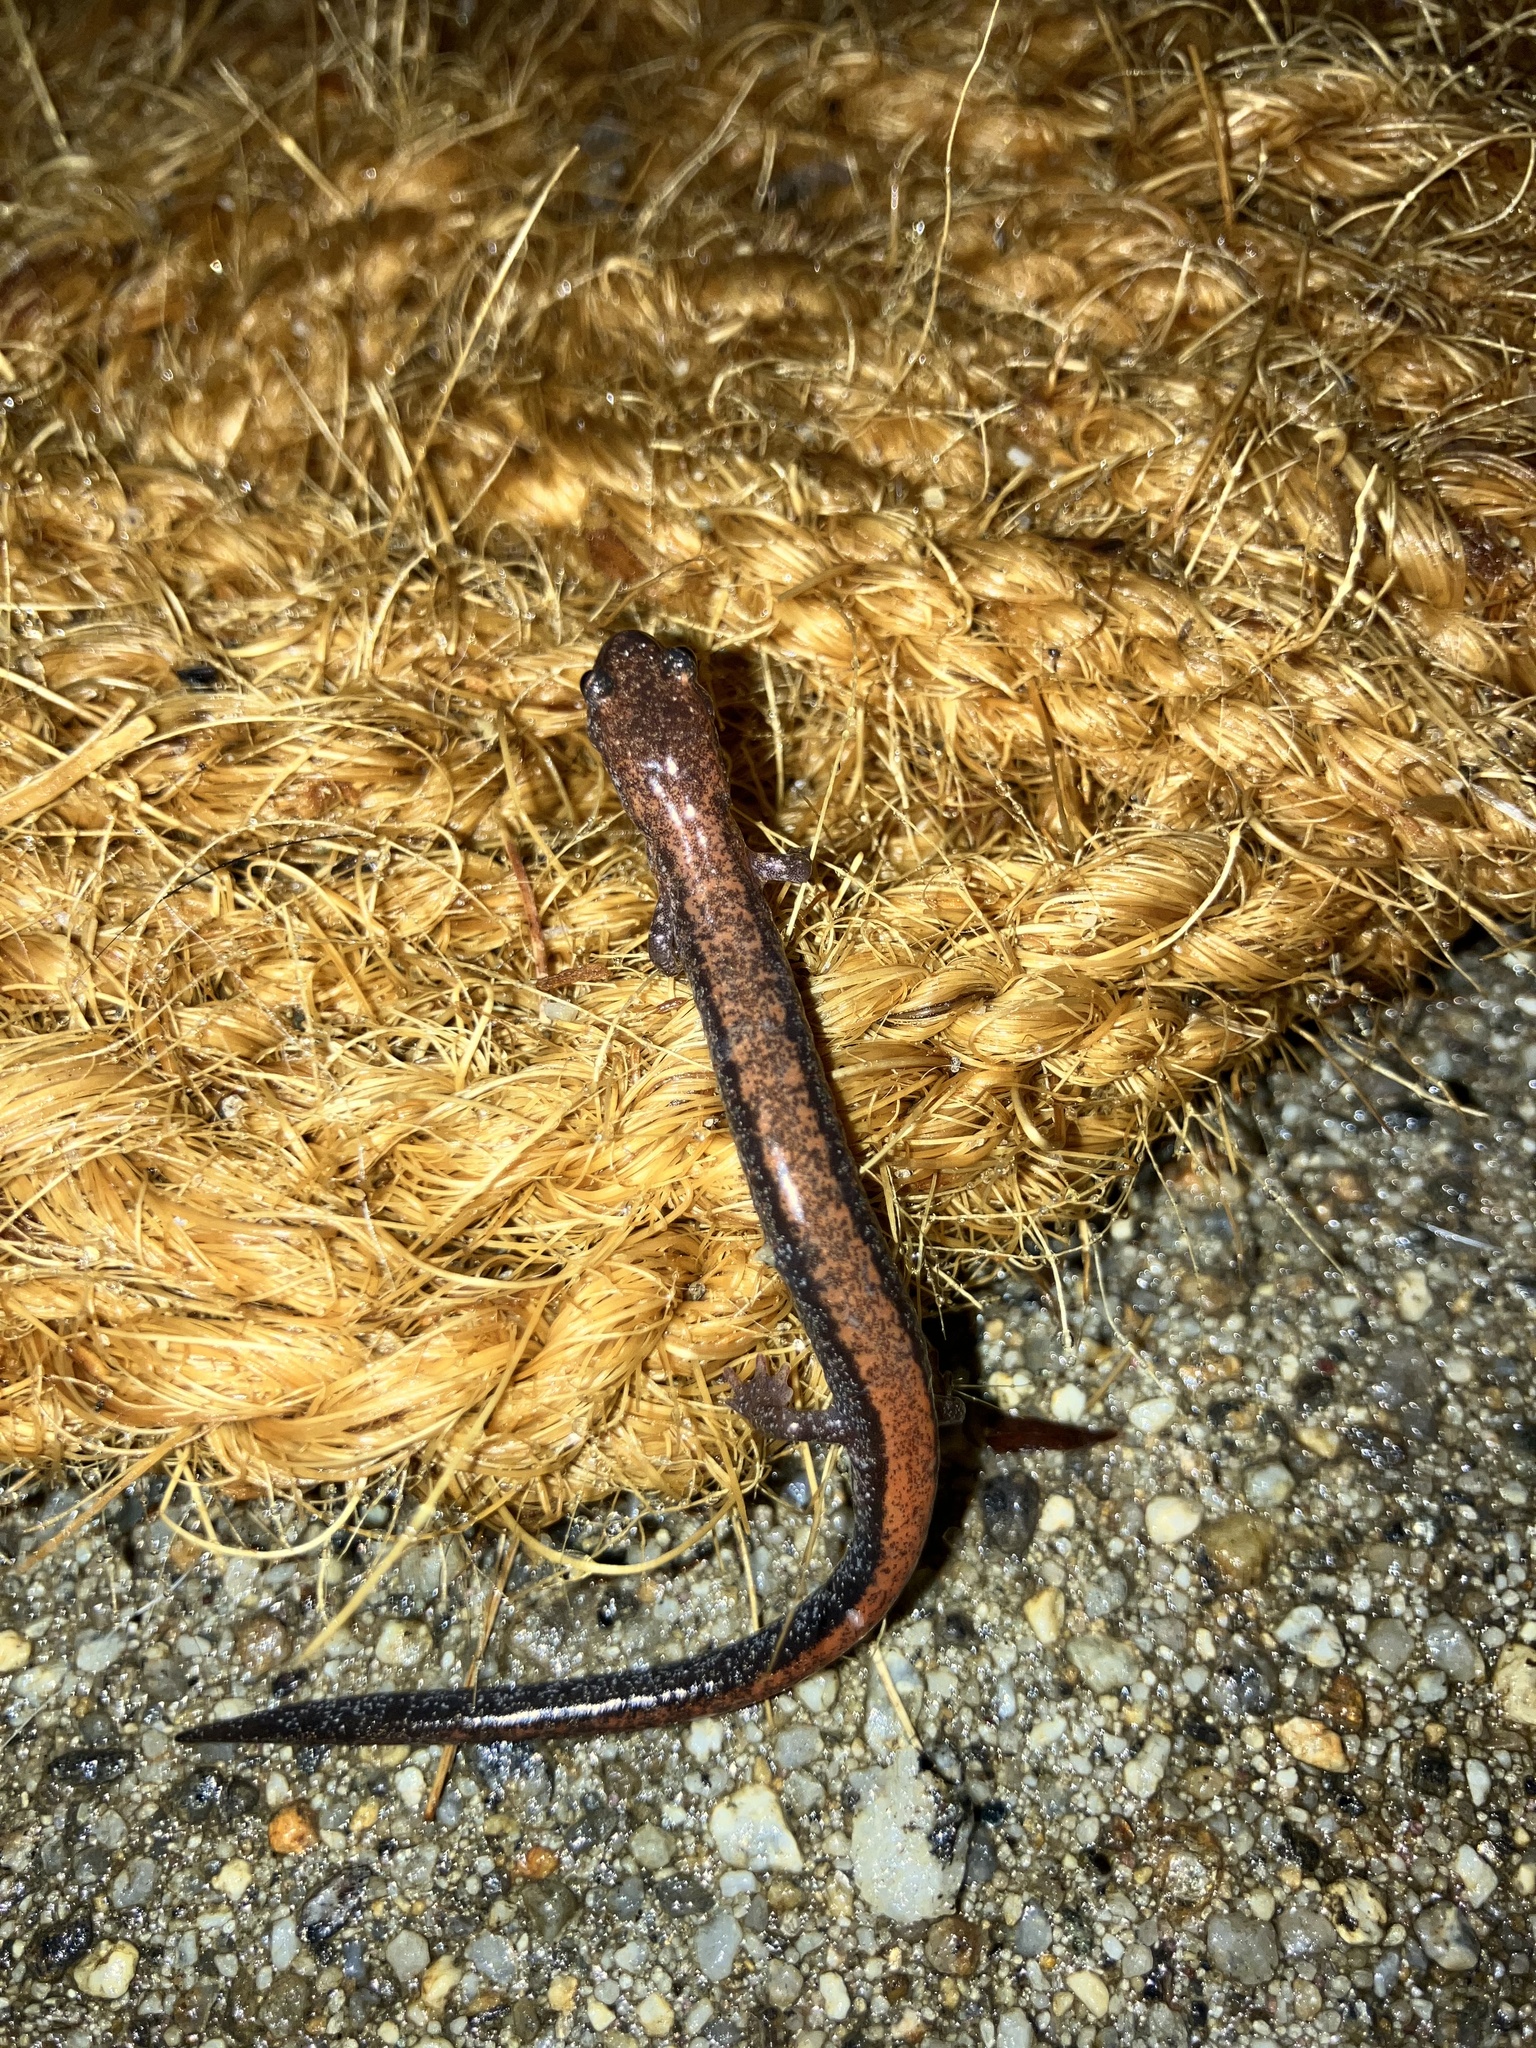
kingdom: Animalia
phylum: Chordata
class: Amphibia
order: Caudata
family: Plethodontidae
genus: Plethodon
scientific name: Plethodon cinereus
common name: Redback salamander
